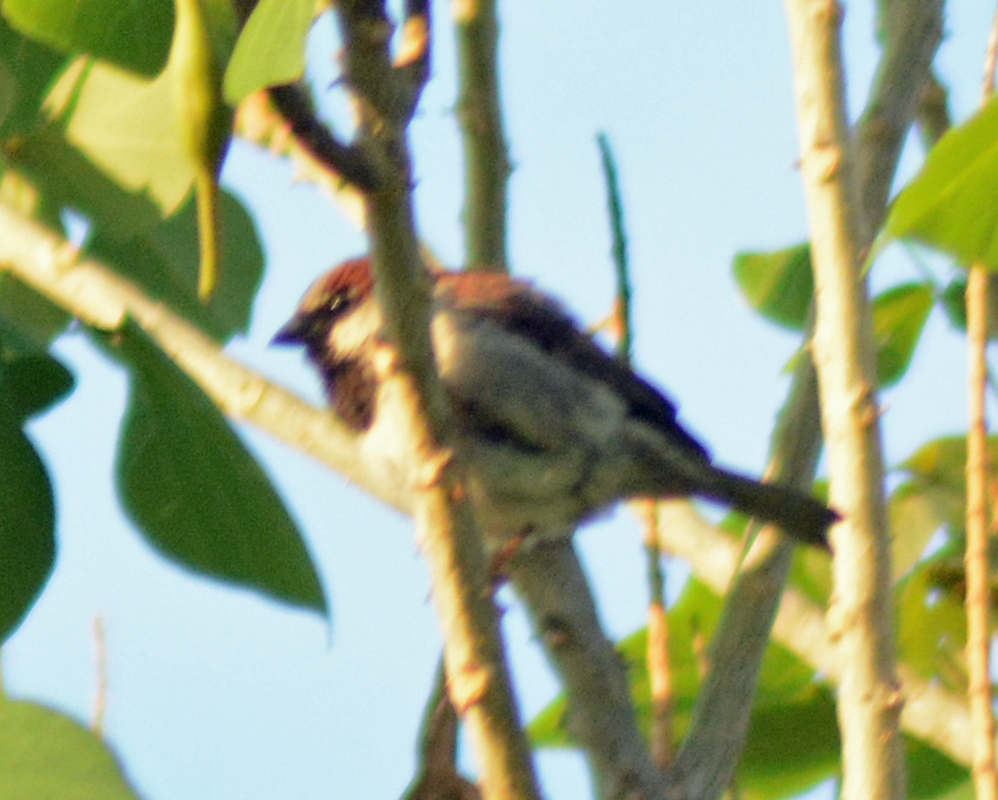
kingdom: Animalia
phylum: Chordata
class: Aves
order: Passeriformes
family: Passeridae
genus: Passer
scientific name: Passer domesticus
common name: House sparrow
